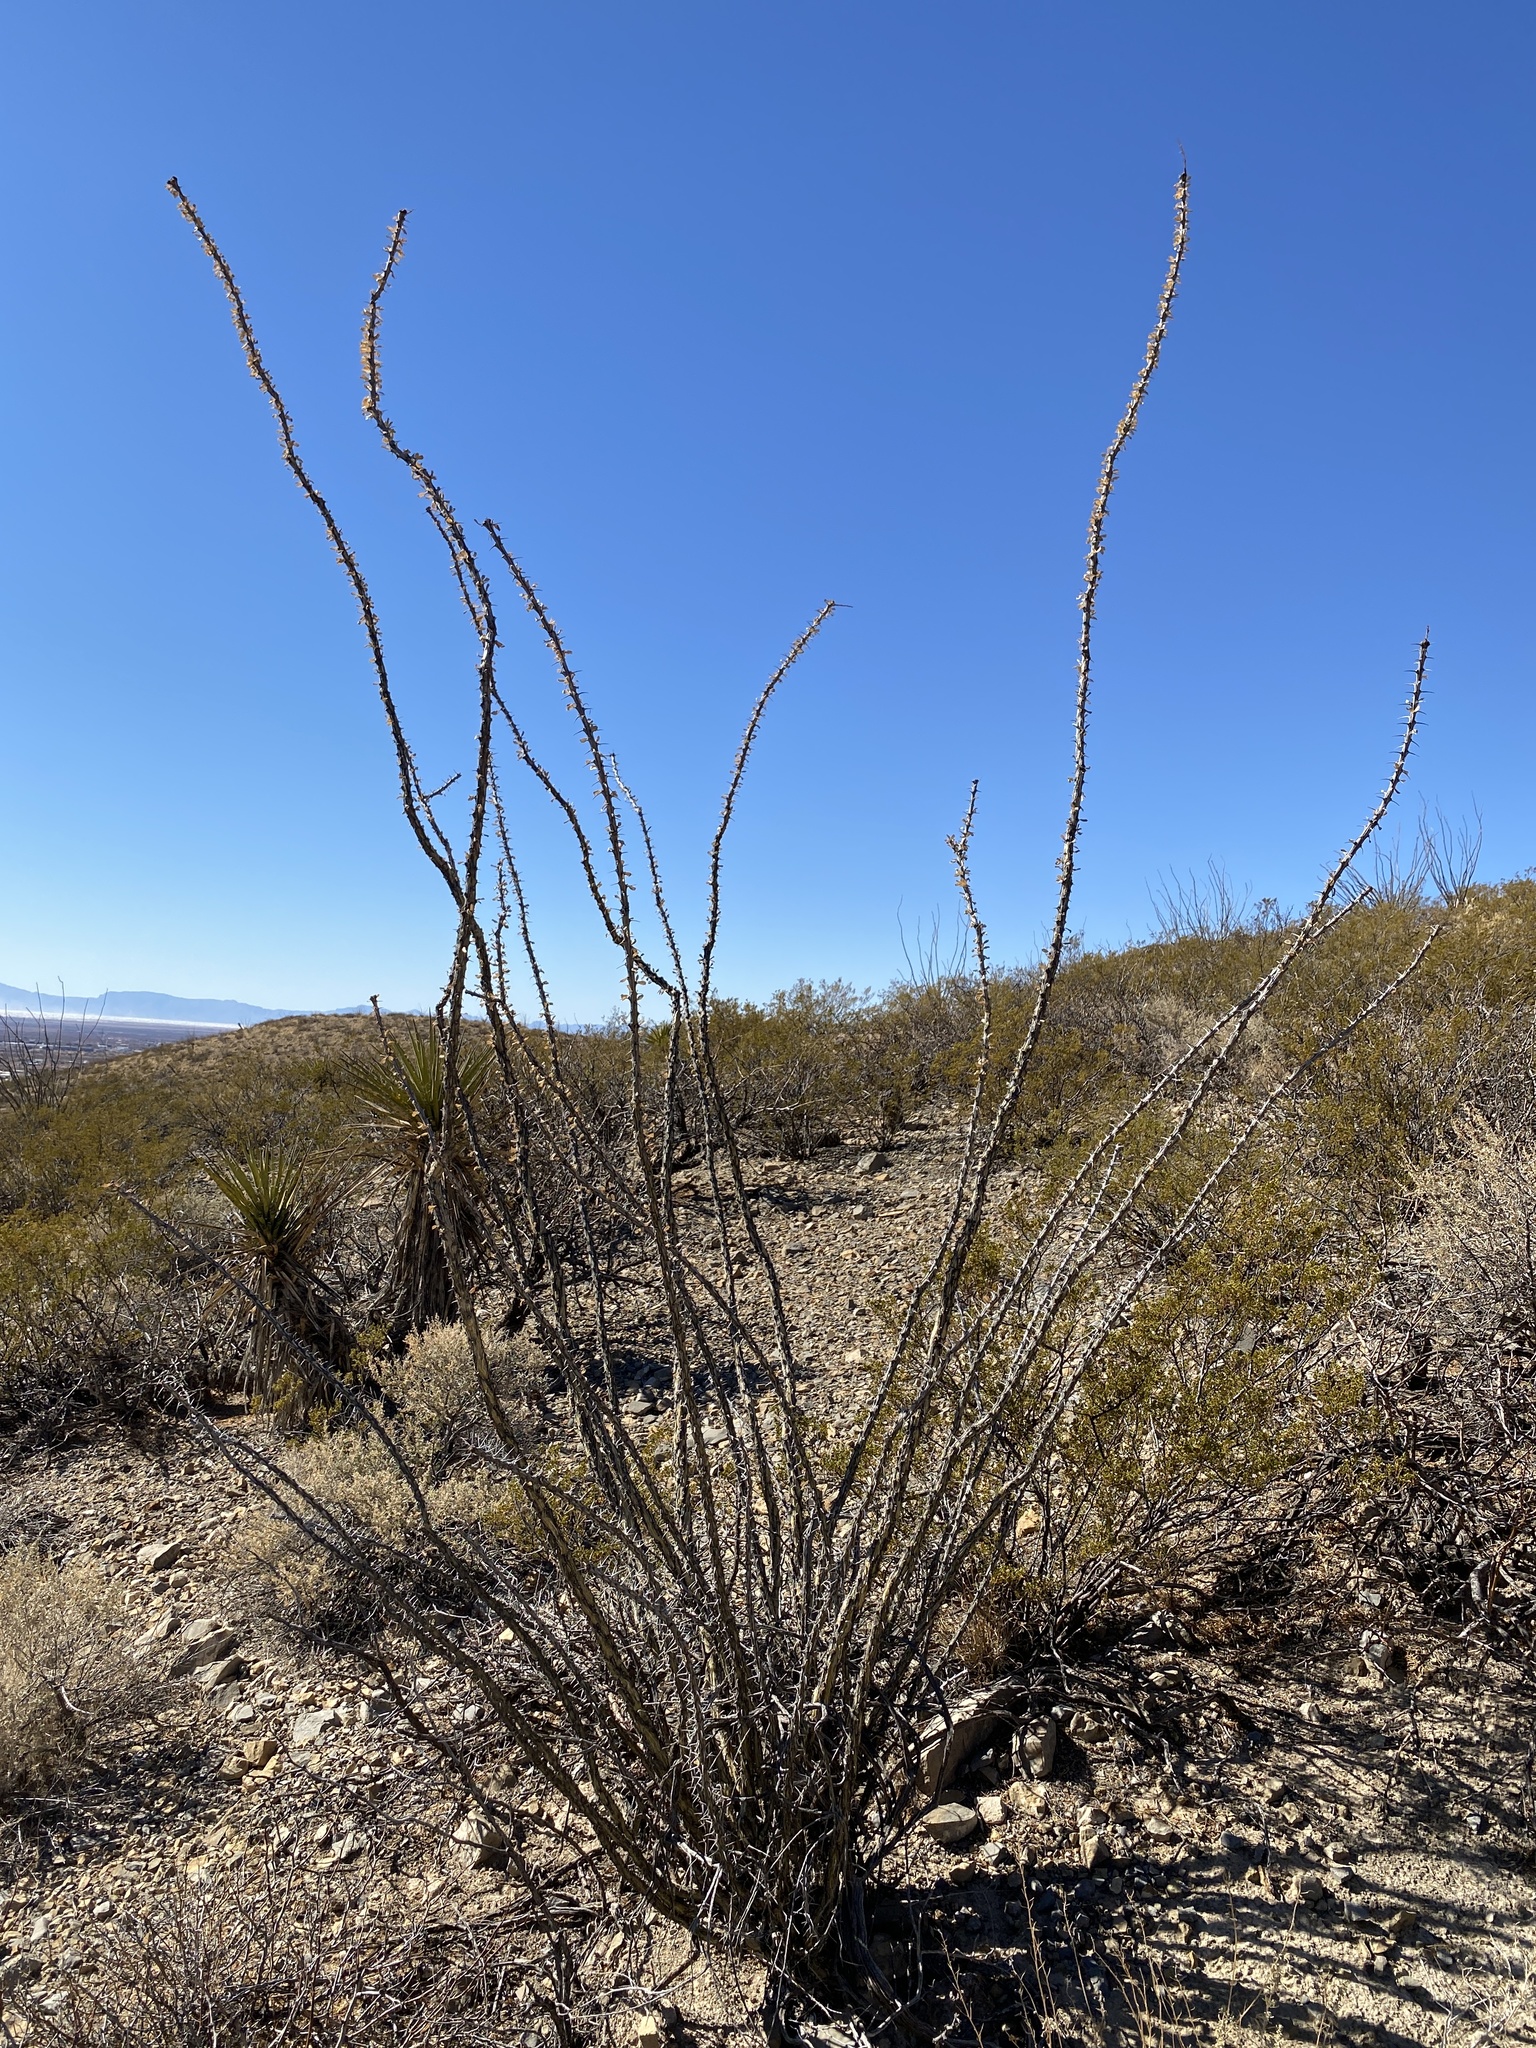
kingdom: Plantae
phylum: Tracheophyta
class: Magnoliopsida
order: Ericales
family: Fouquieriaceae
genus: Fouquieria
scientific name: Fouquieria splendens
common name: Vine-cactus
